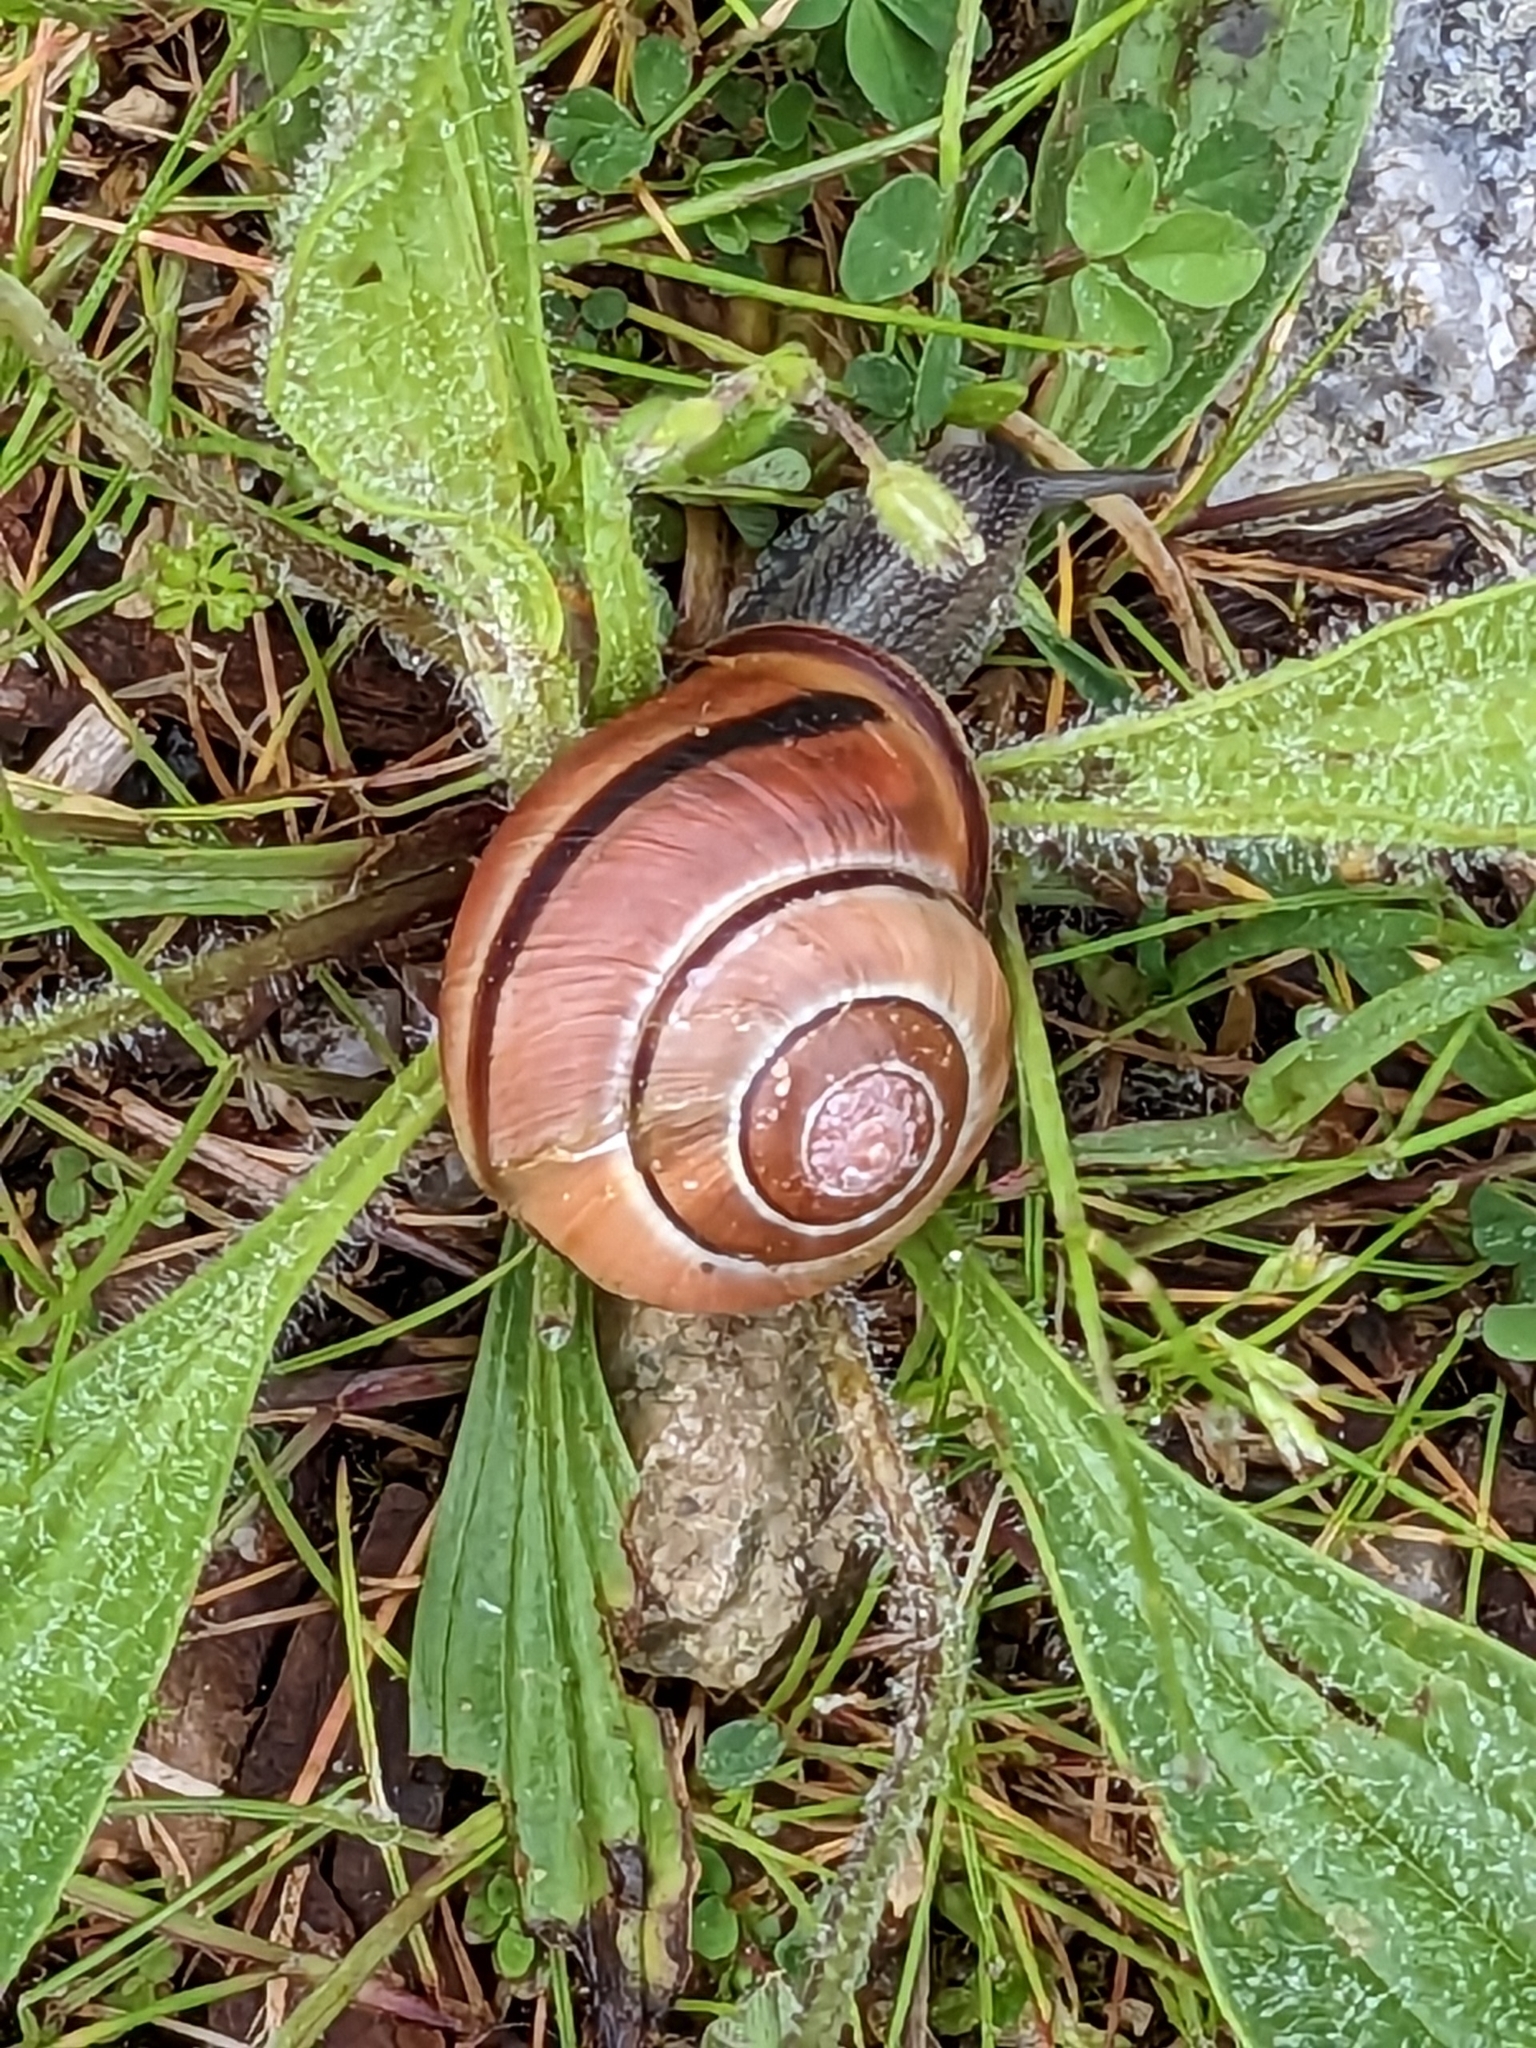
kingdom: Animalia
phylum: Mollusca
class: Gastropoda
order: Stylommatophora
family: Helicidae
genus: Cepaea
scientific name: Cepaea nemoralis
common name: Grovesnail
